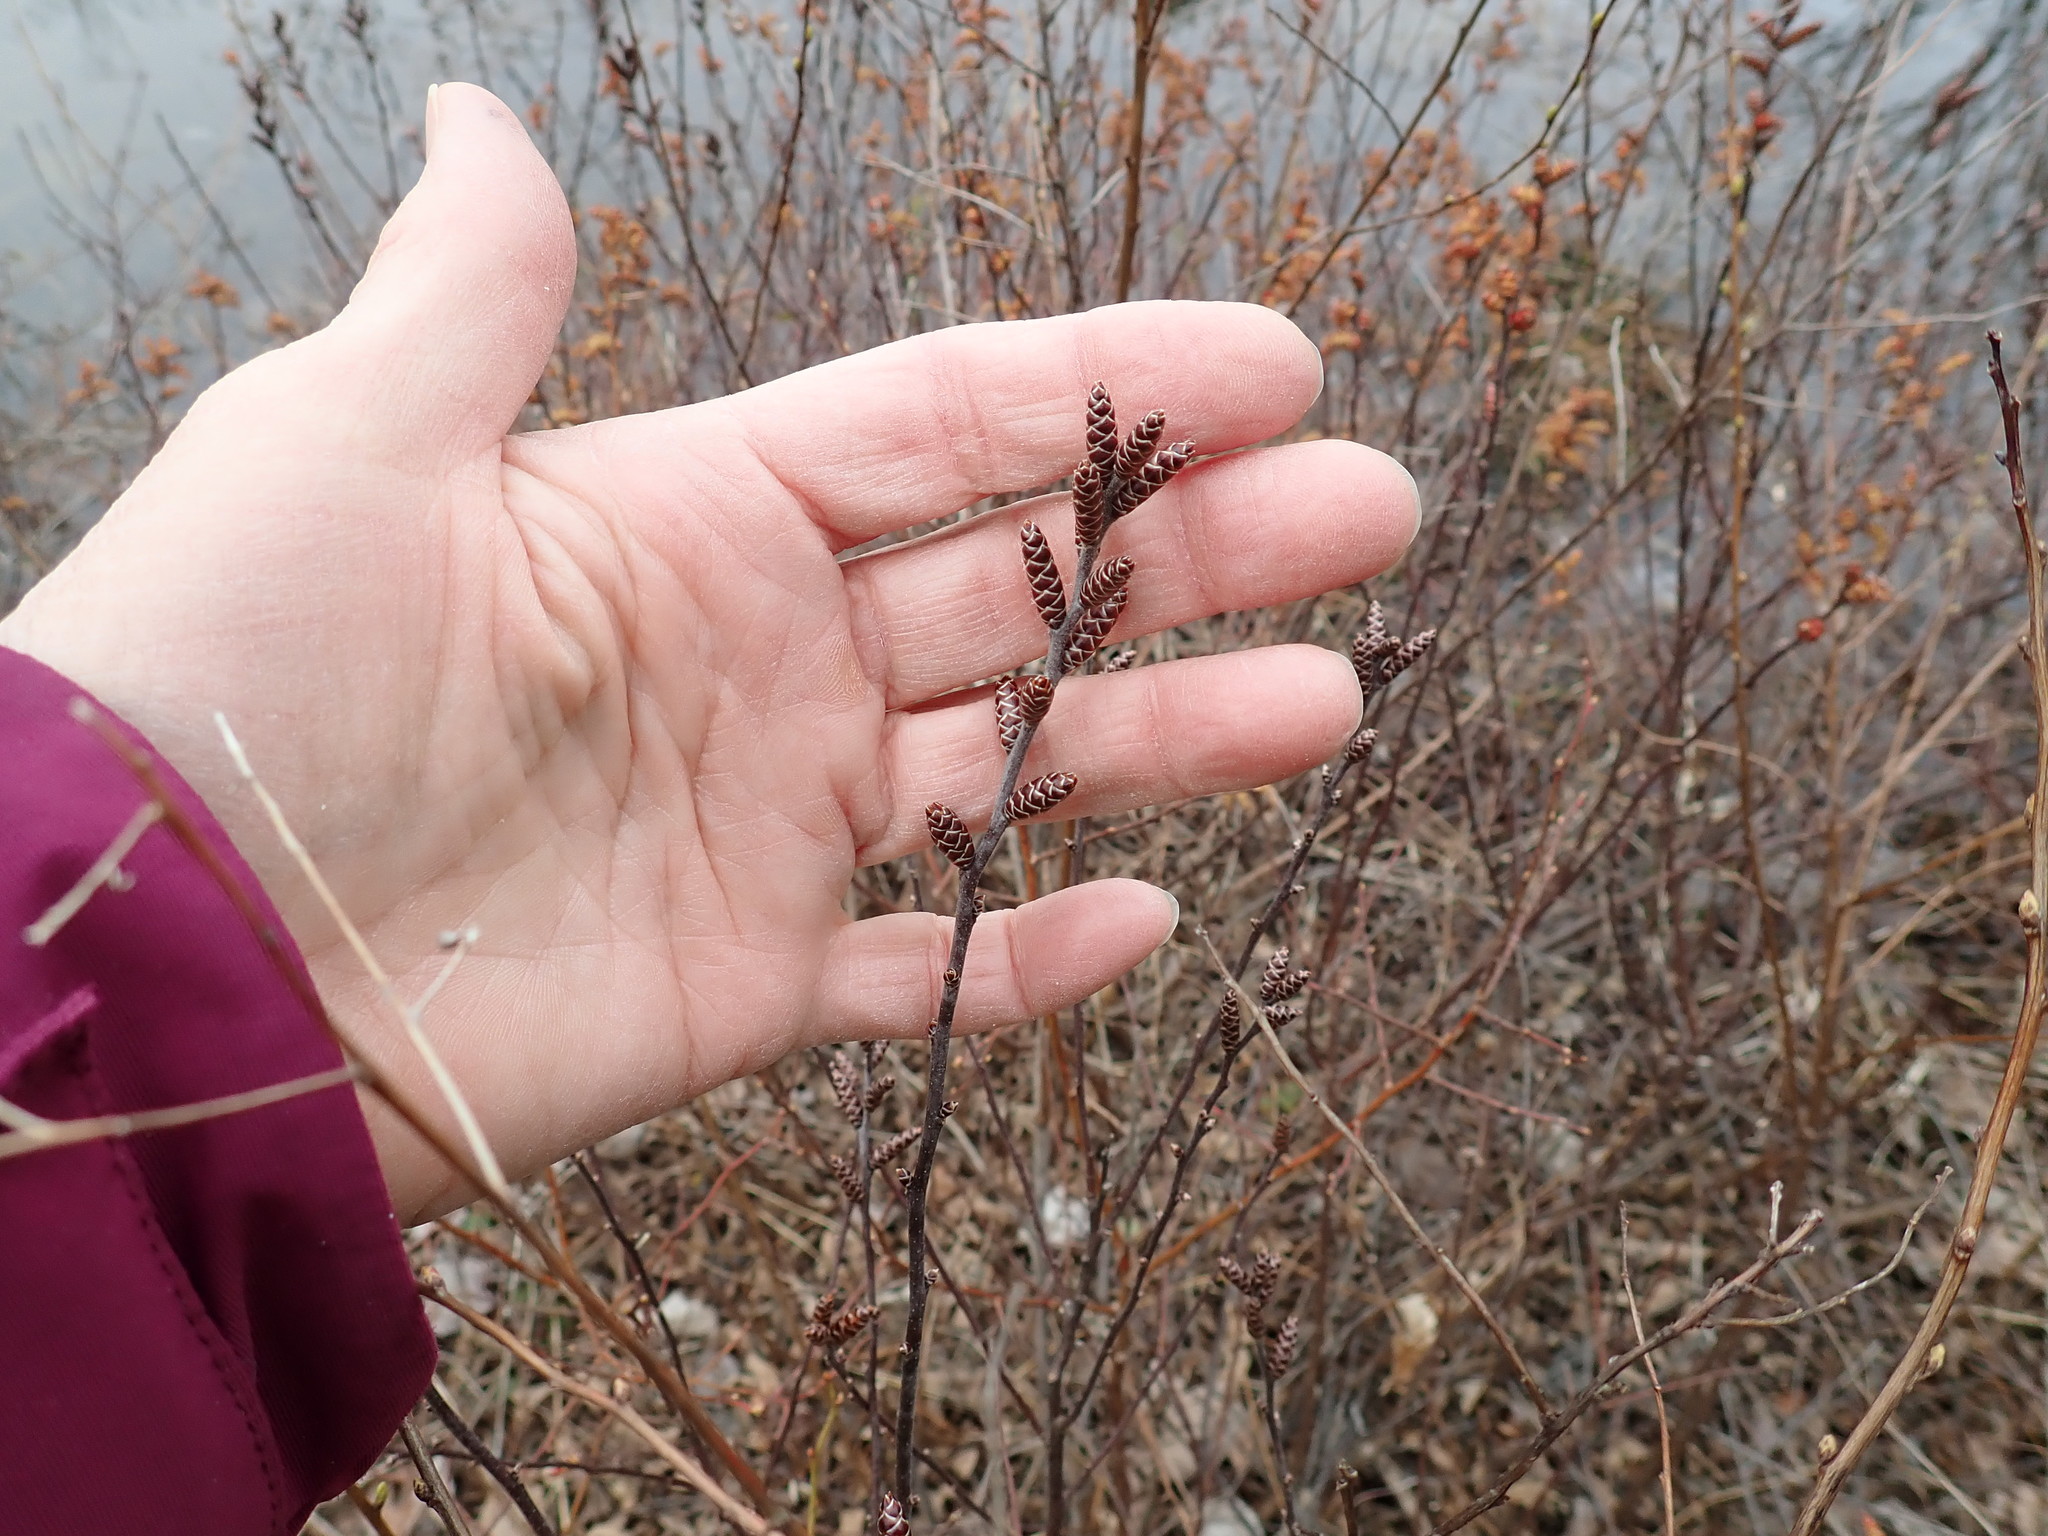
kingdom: Plantae
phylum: Tracheophyta
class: Magnoliopsida
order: Fagales
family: Myricaceae
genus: Myrica
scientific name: Myrica gale
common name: Sweet gale
